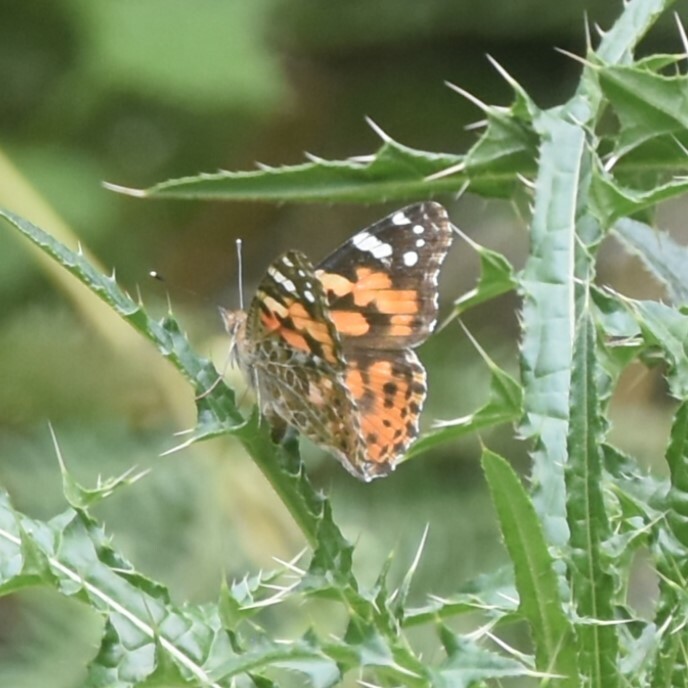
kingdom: Animalia
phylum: Arthropoda
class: Insecta
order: Lepidoptera
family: Nymphalidae
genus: Vanessa
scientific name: Vanessa cardui
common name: Painted lady
